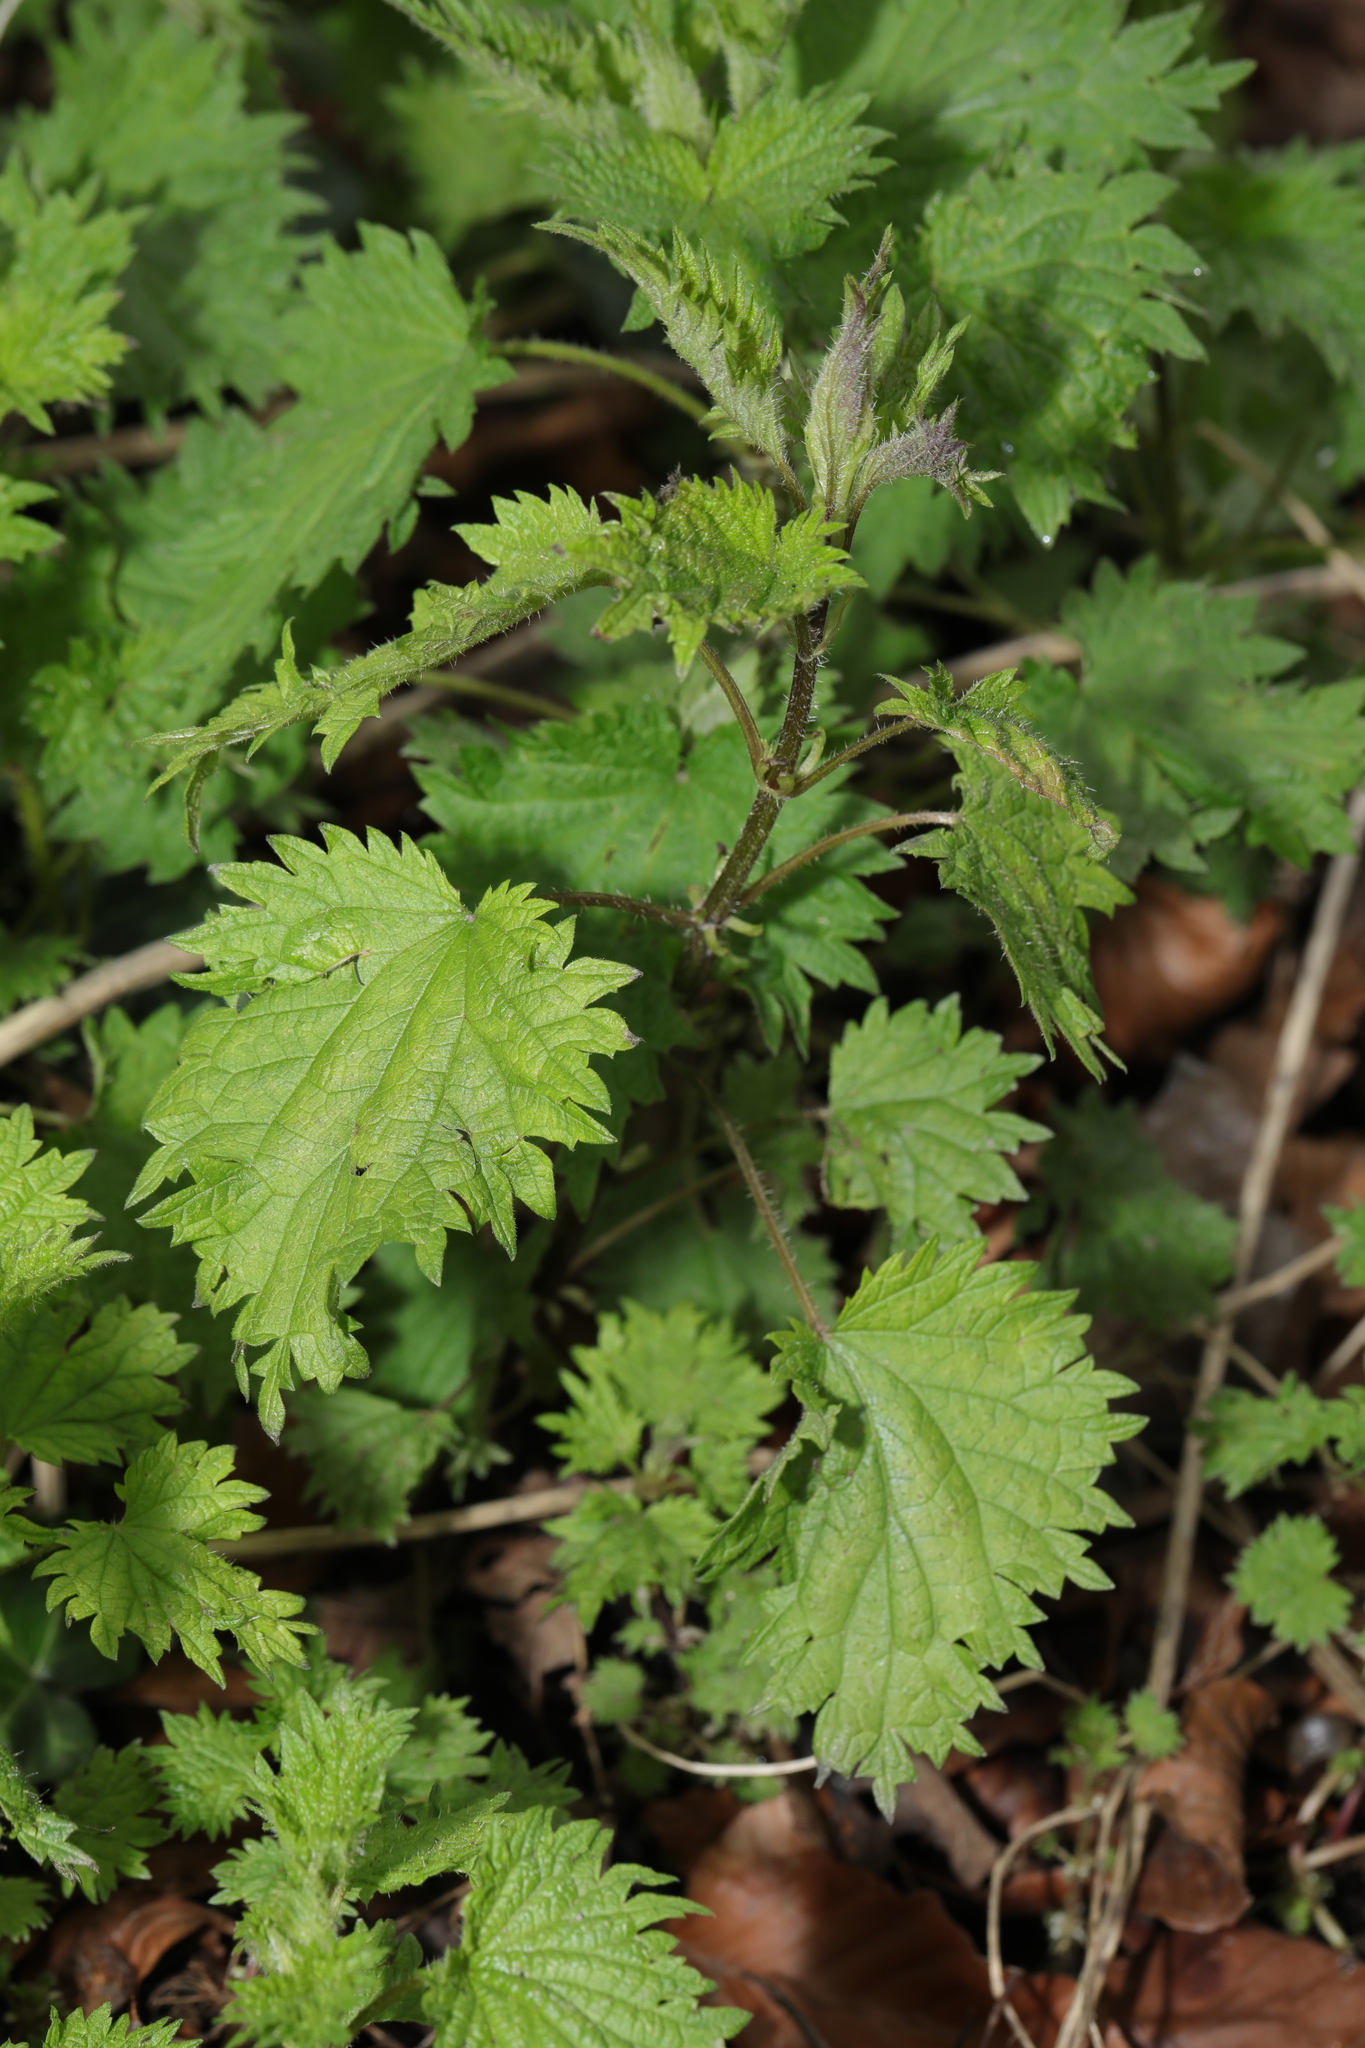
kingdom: Plantae
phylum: Tracheophyta
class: Magnoliopsida
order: Rosales
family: Urticaceae
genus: Urtica
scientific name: Urtica dioica
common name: Common nettle
